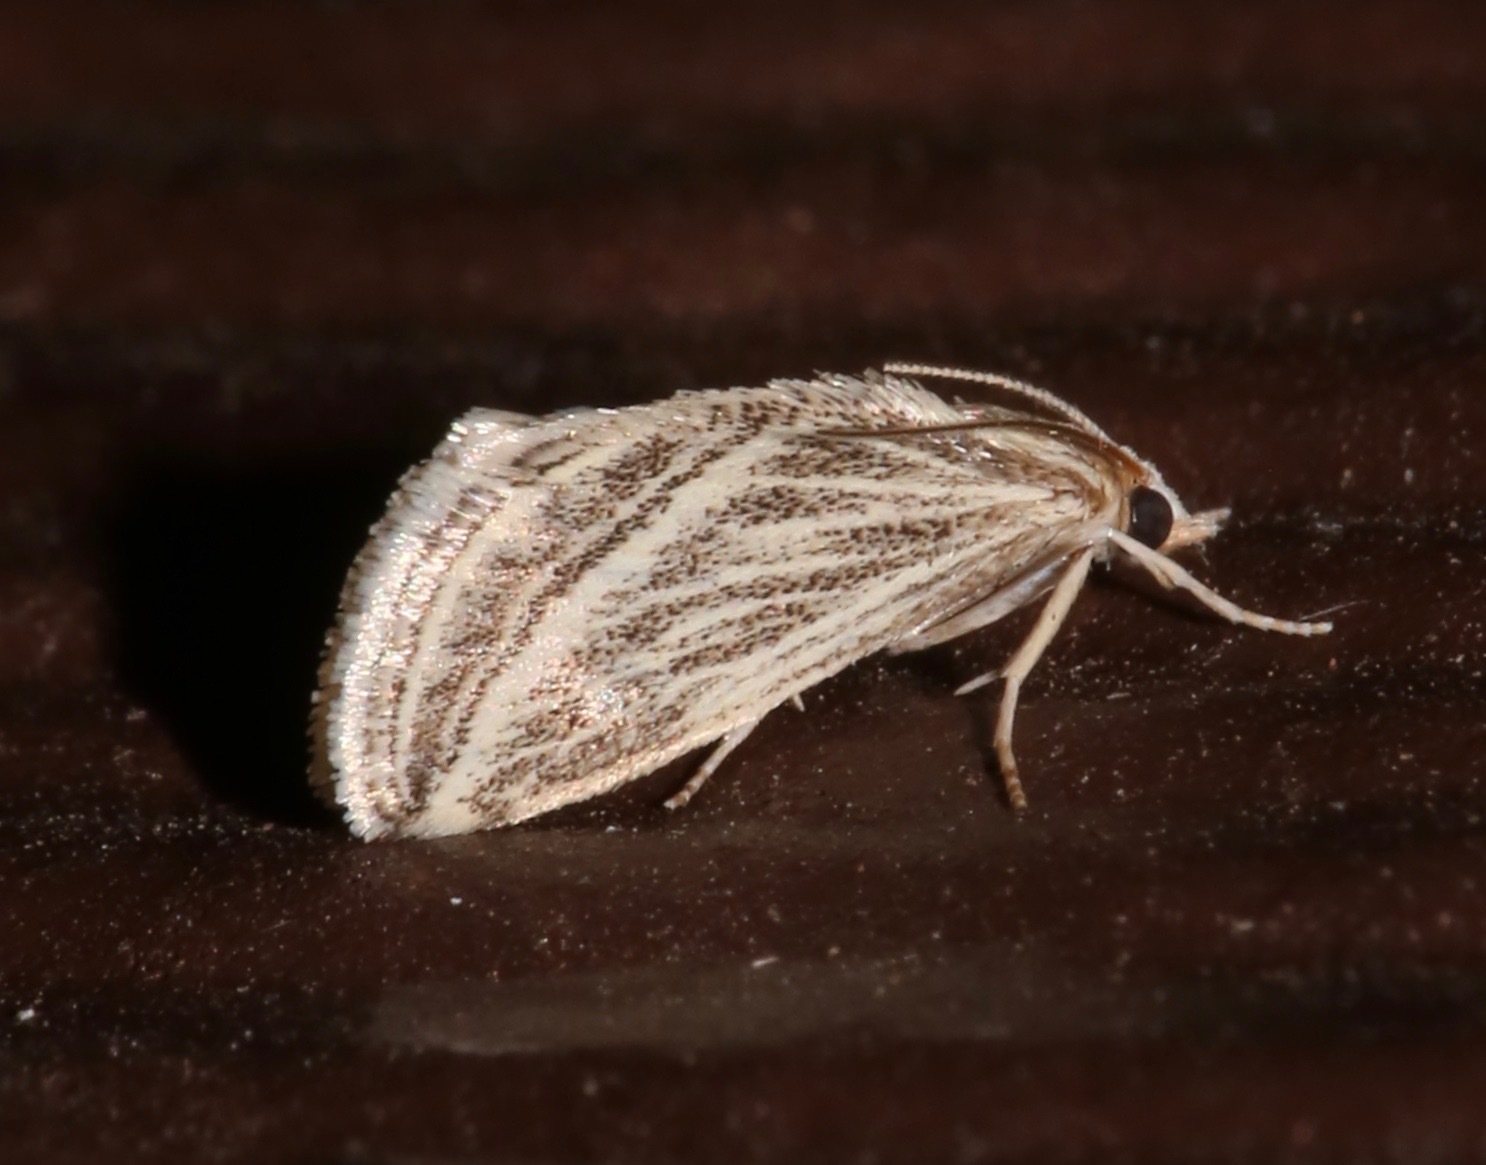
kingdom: Animalia
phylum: Arthropoda
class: Insecta
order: Lepidoptera
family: Crambidae
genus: Procymbopteryx
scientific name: Procymbopteryx belialis
